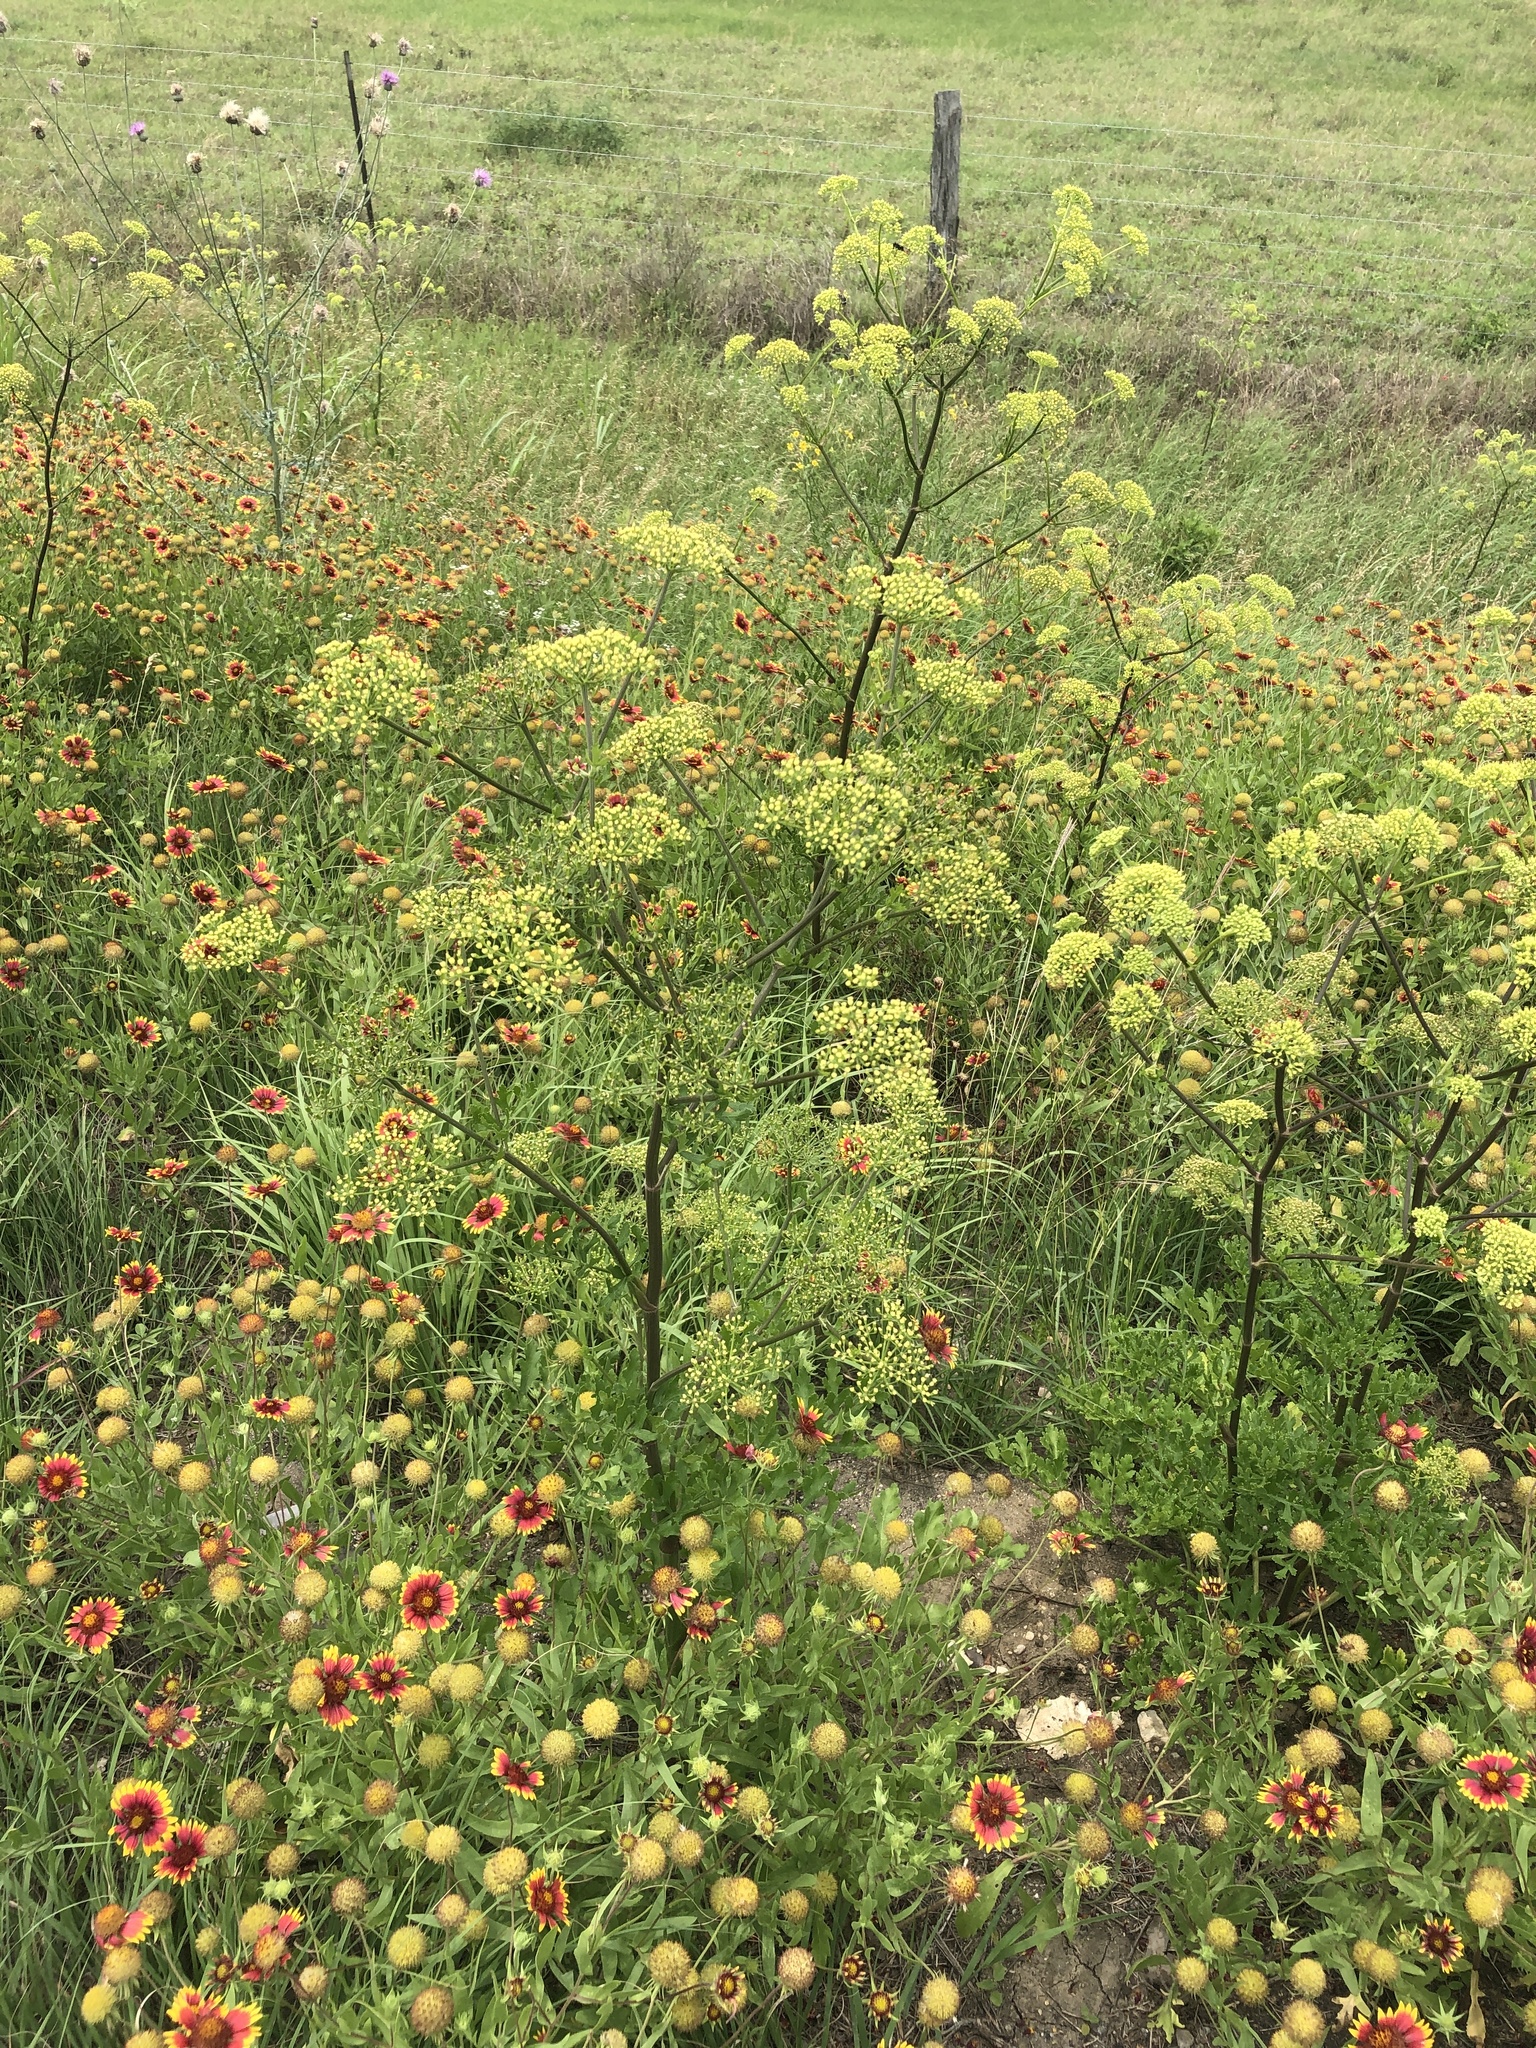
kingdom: Plantae
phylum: Tracheophyta
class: Magnoliopsida
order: Apiales
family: Apiaceae
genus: Polytaenia
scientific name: Polytaenia texana
